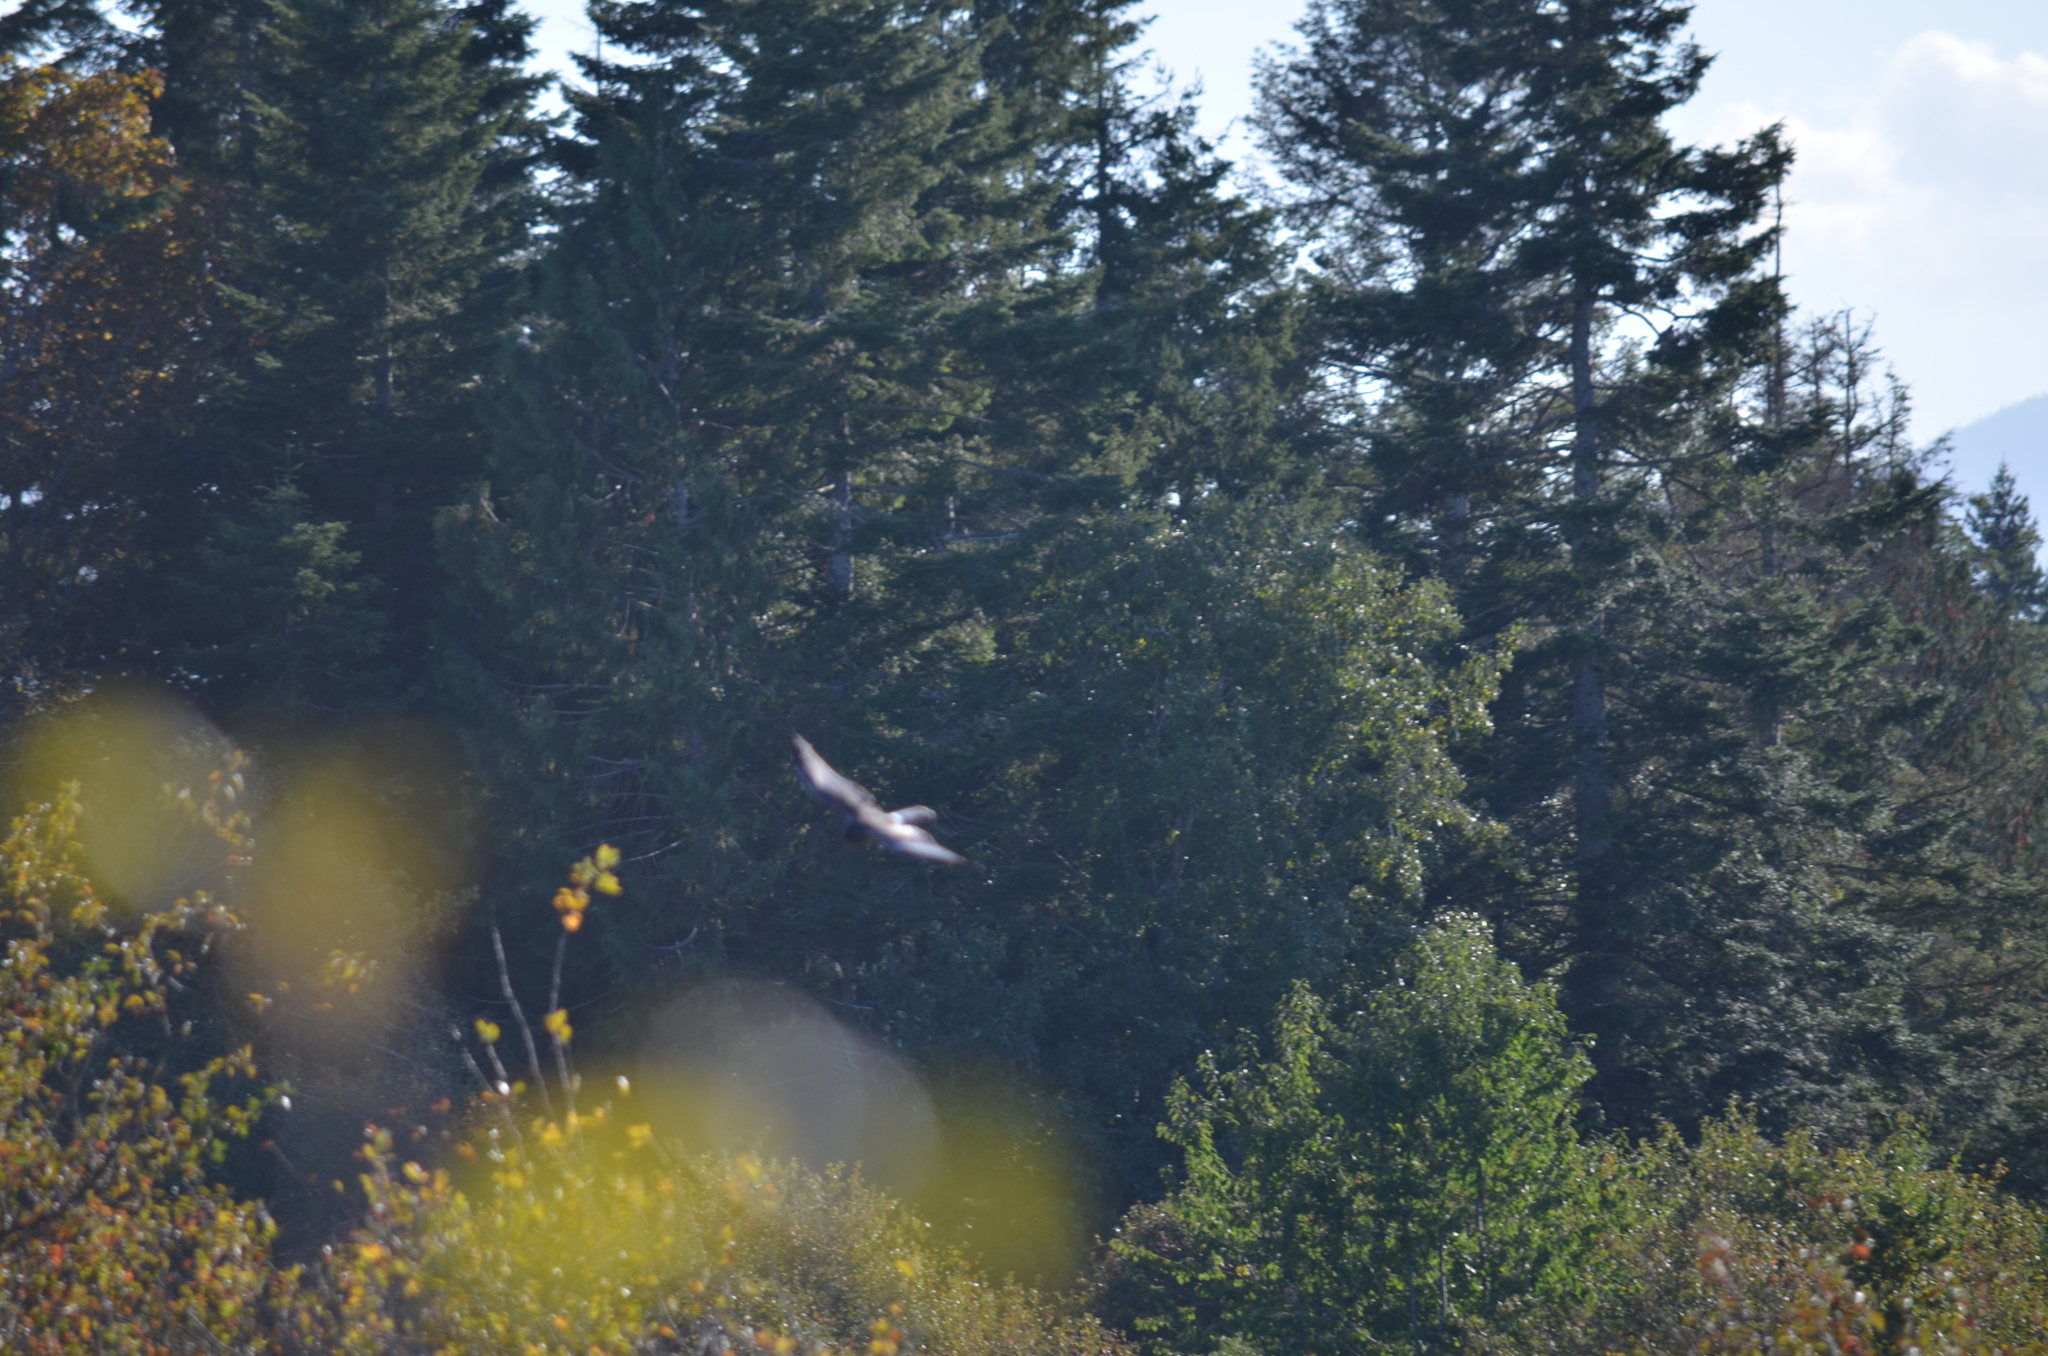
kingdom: Animalia
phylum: Chordata
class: Aves
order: Accipitriformes
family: Accipitridae
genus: Circus
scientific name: Circus cyaneus
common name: Hen harrier
